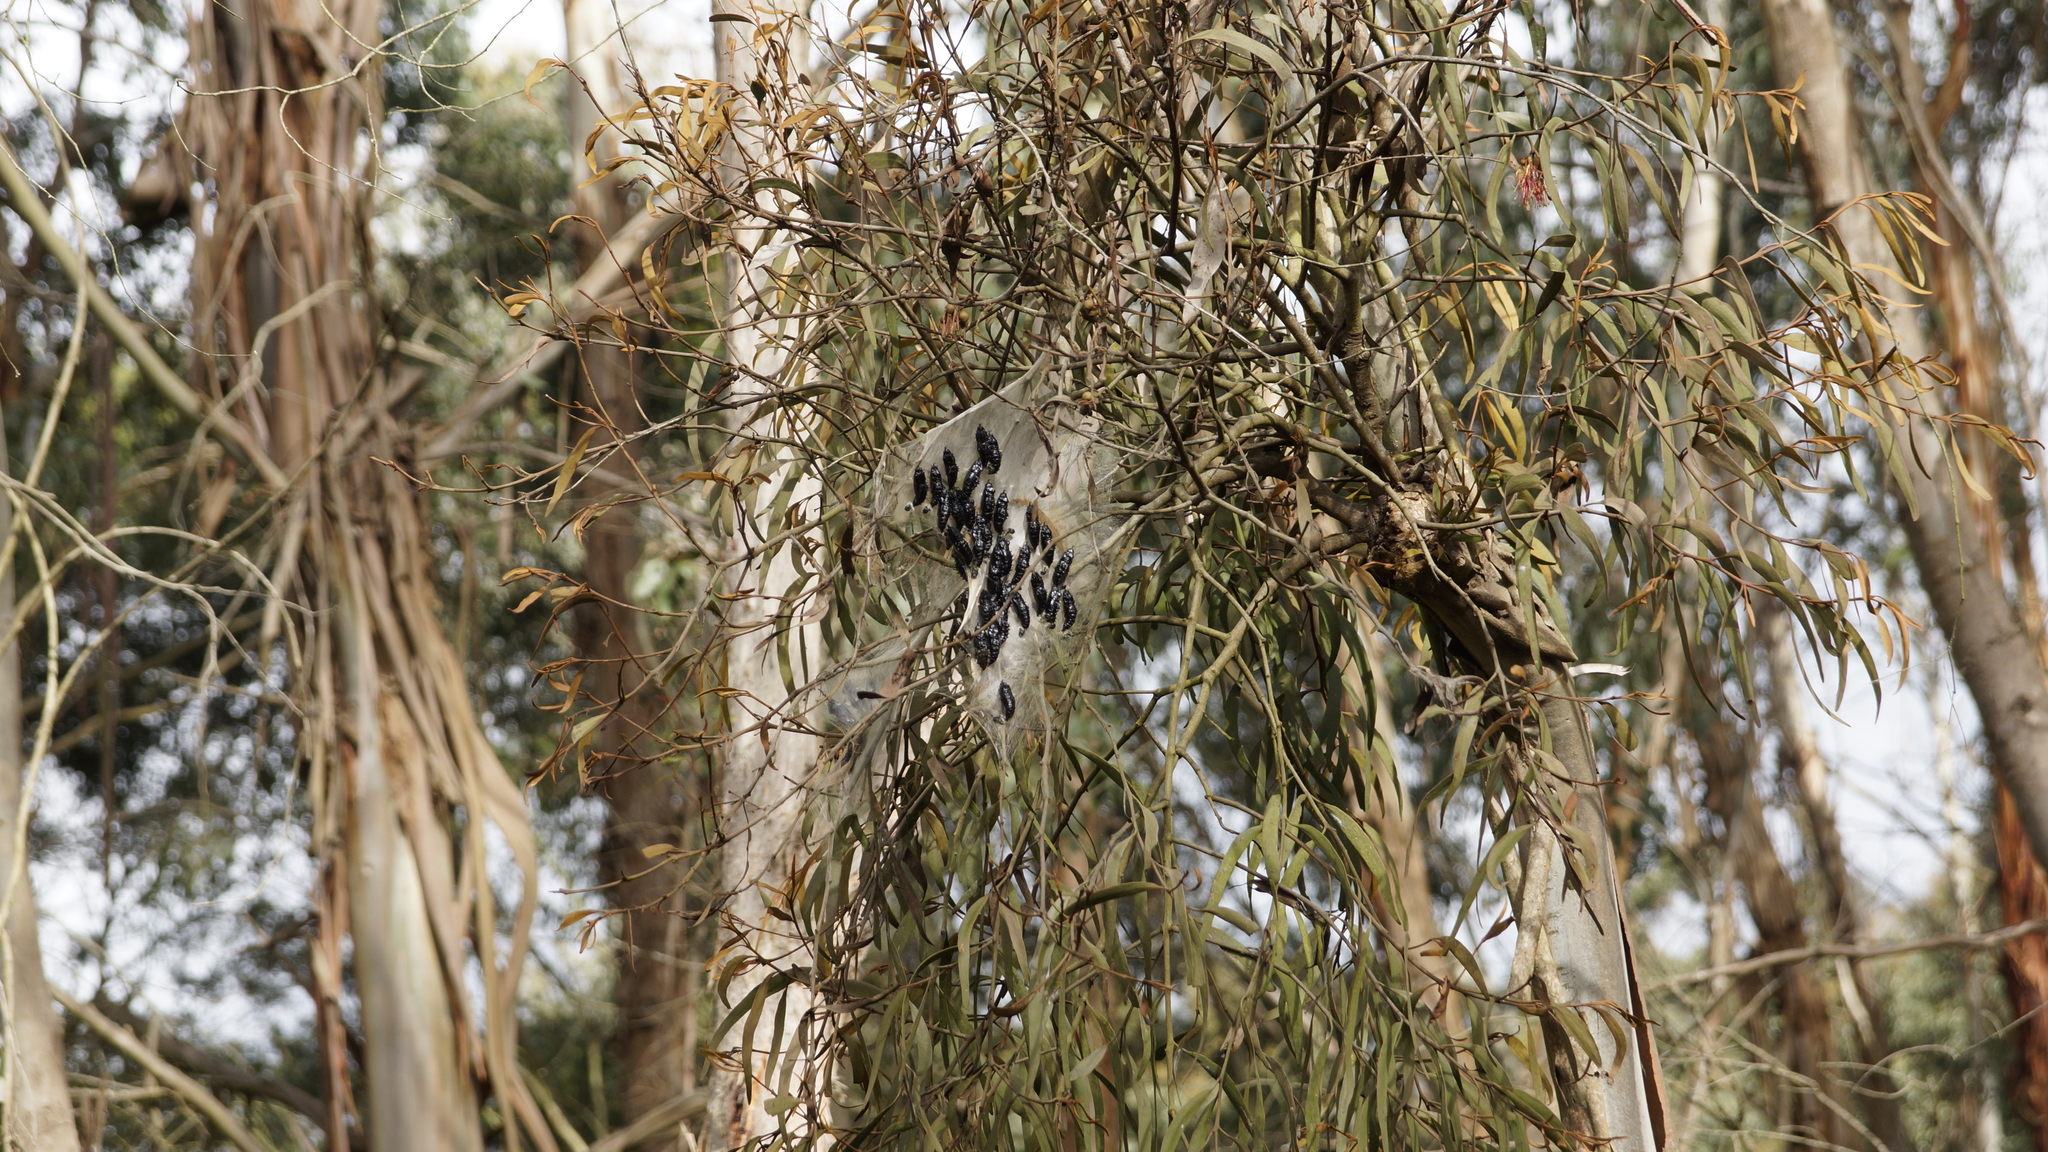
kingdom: Animalia
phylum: Arthropoda
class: Insecta
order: Lepidoptera
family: Pieridae
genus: Delias
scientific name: Delias harpalyce
